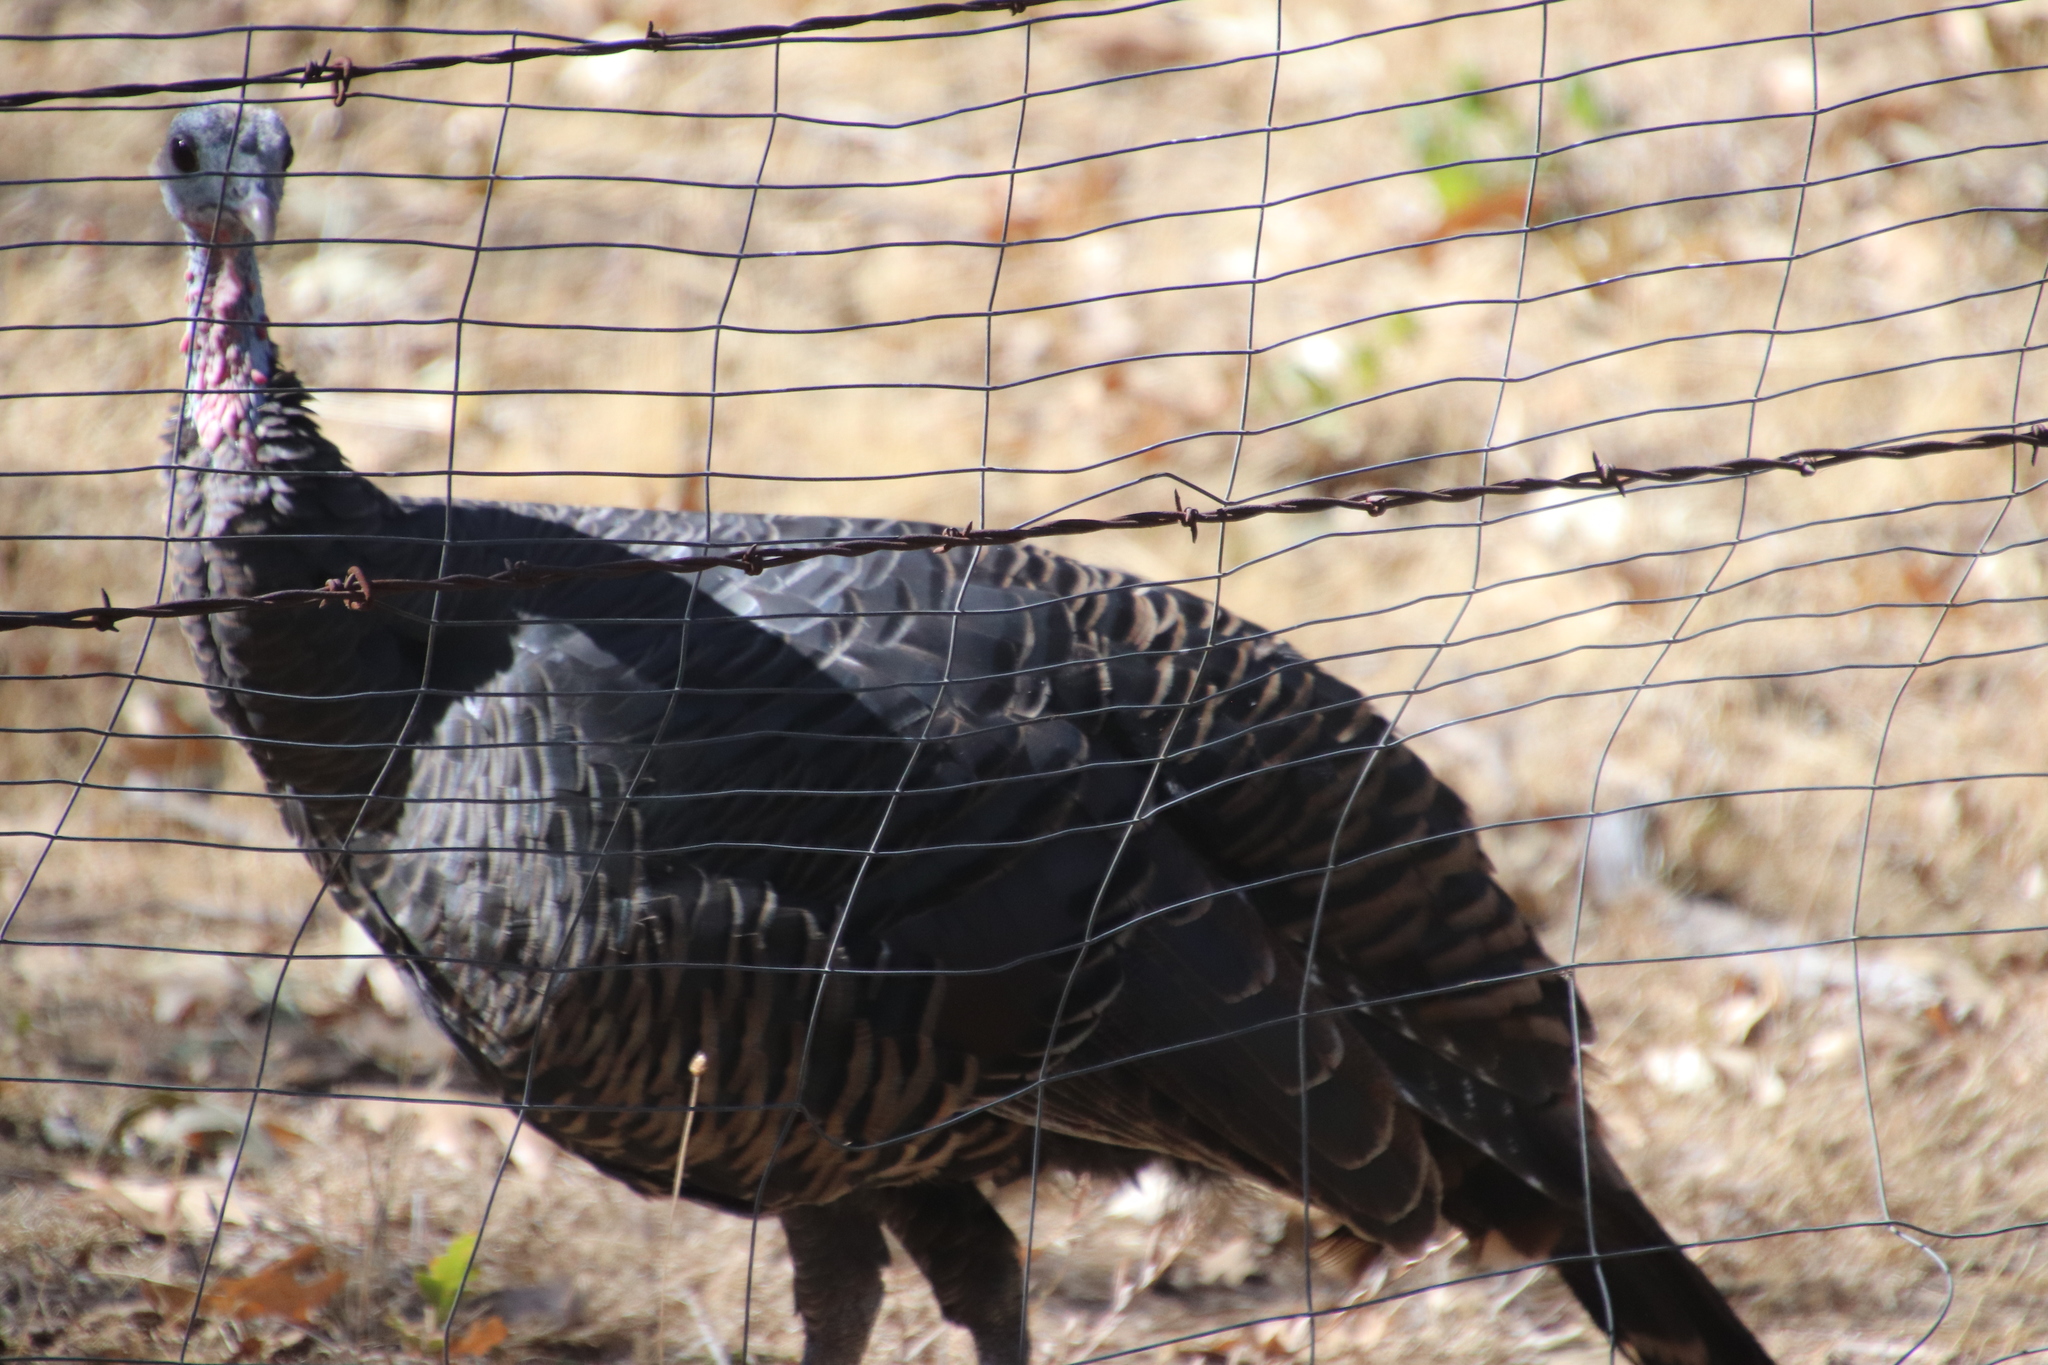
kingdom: Animalia
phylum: Chordata
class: Aves
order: Galliformes
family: Phasianidae
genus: Meleagris
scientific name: Meleagris gallopavo
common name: Wild turkey
